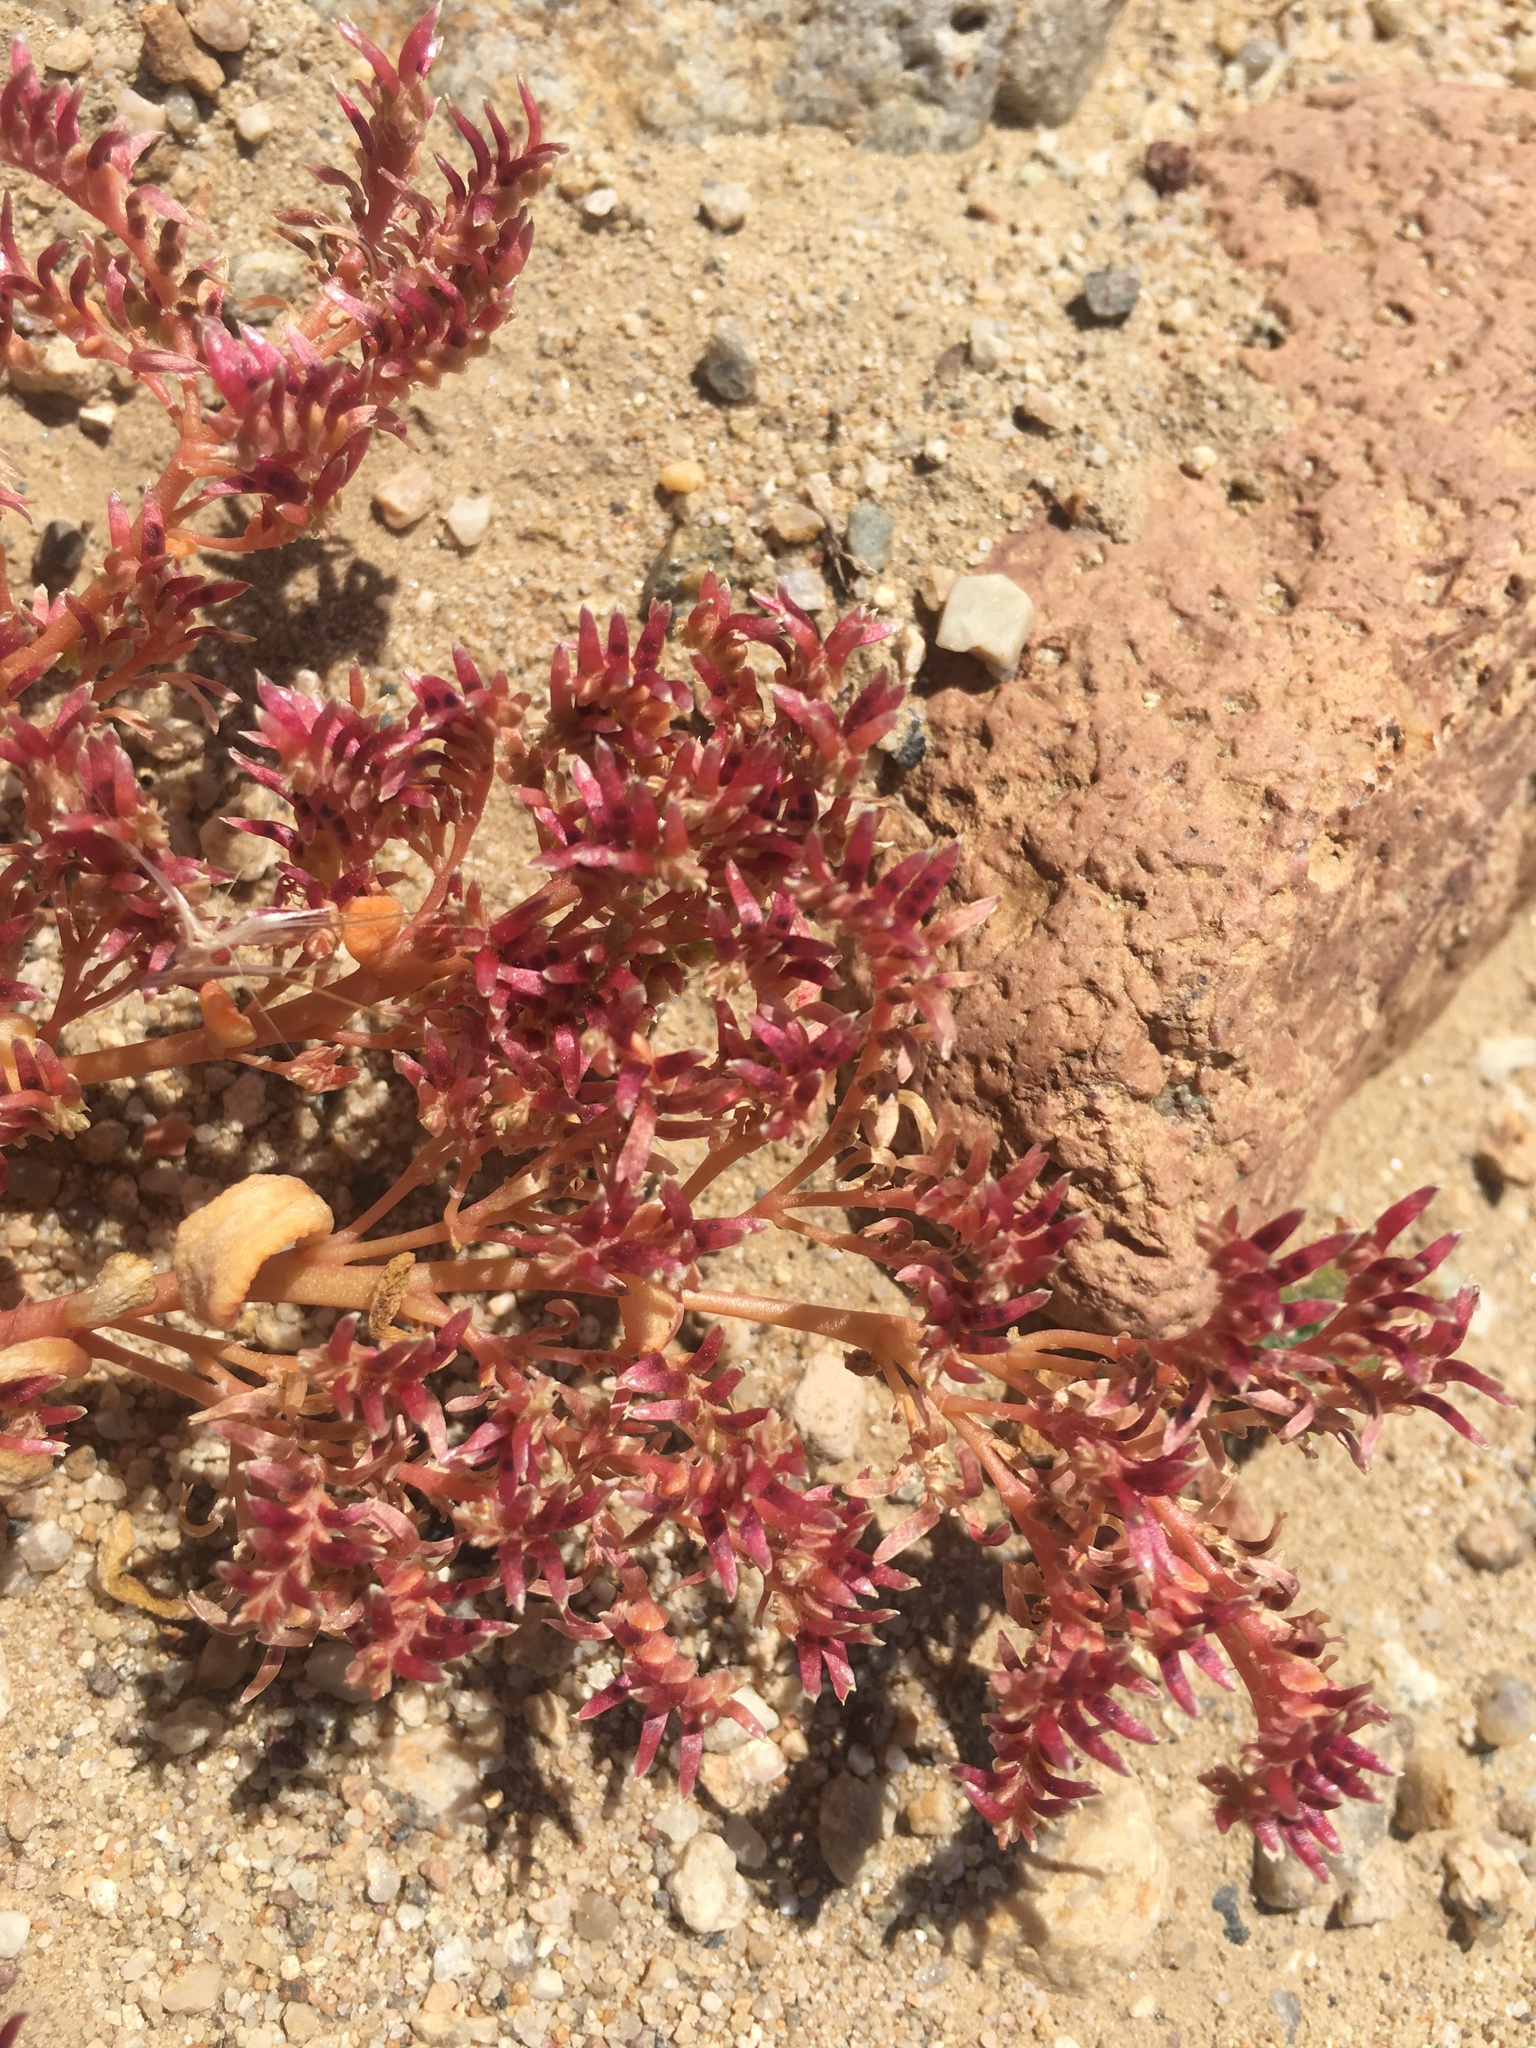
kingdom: Plantae
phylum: Tracheophyta
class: Magnoliopsida
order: Caryophyllales
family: Montiaceae
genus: Calyptridium
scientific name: Calyptridium monandrum
